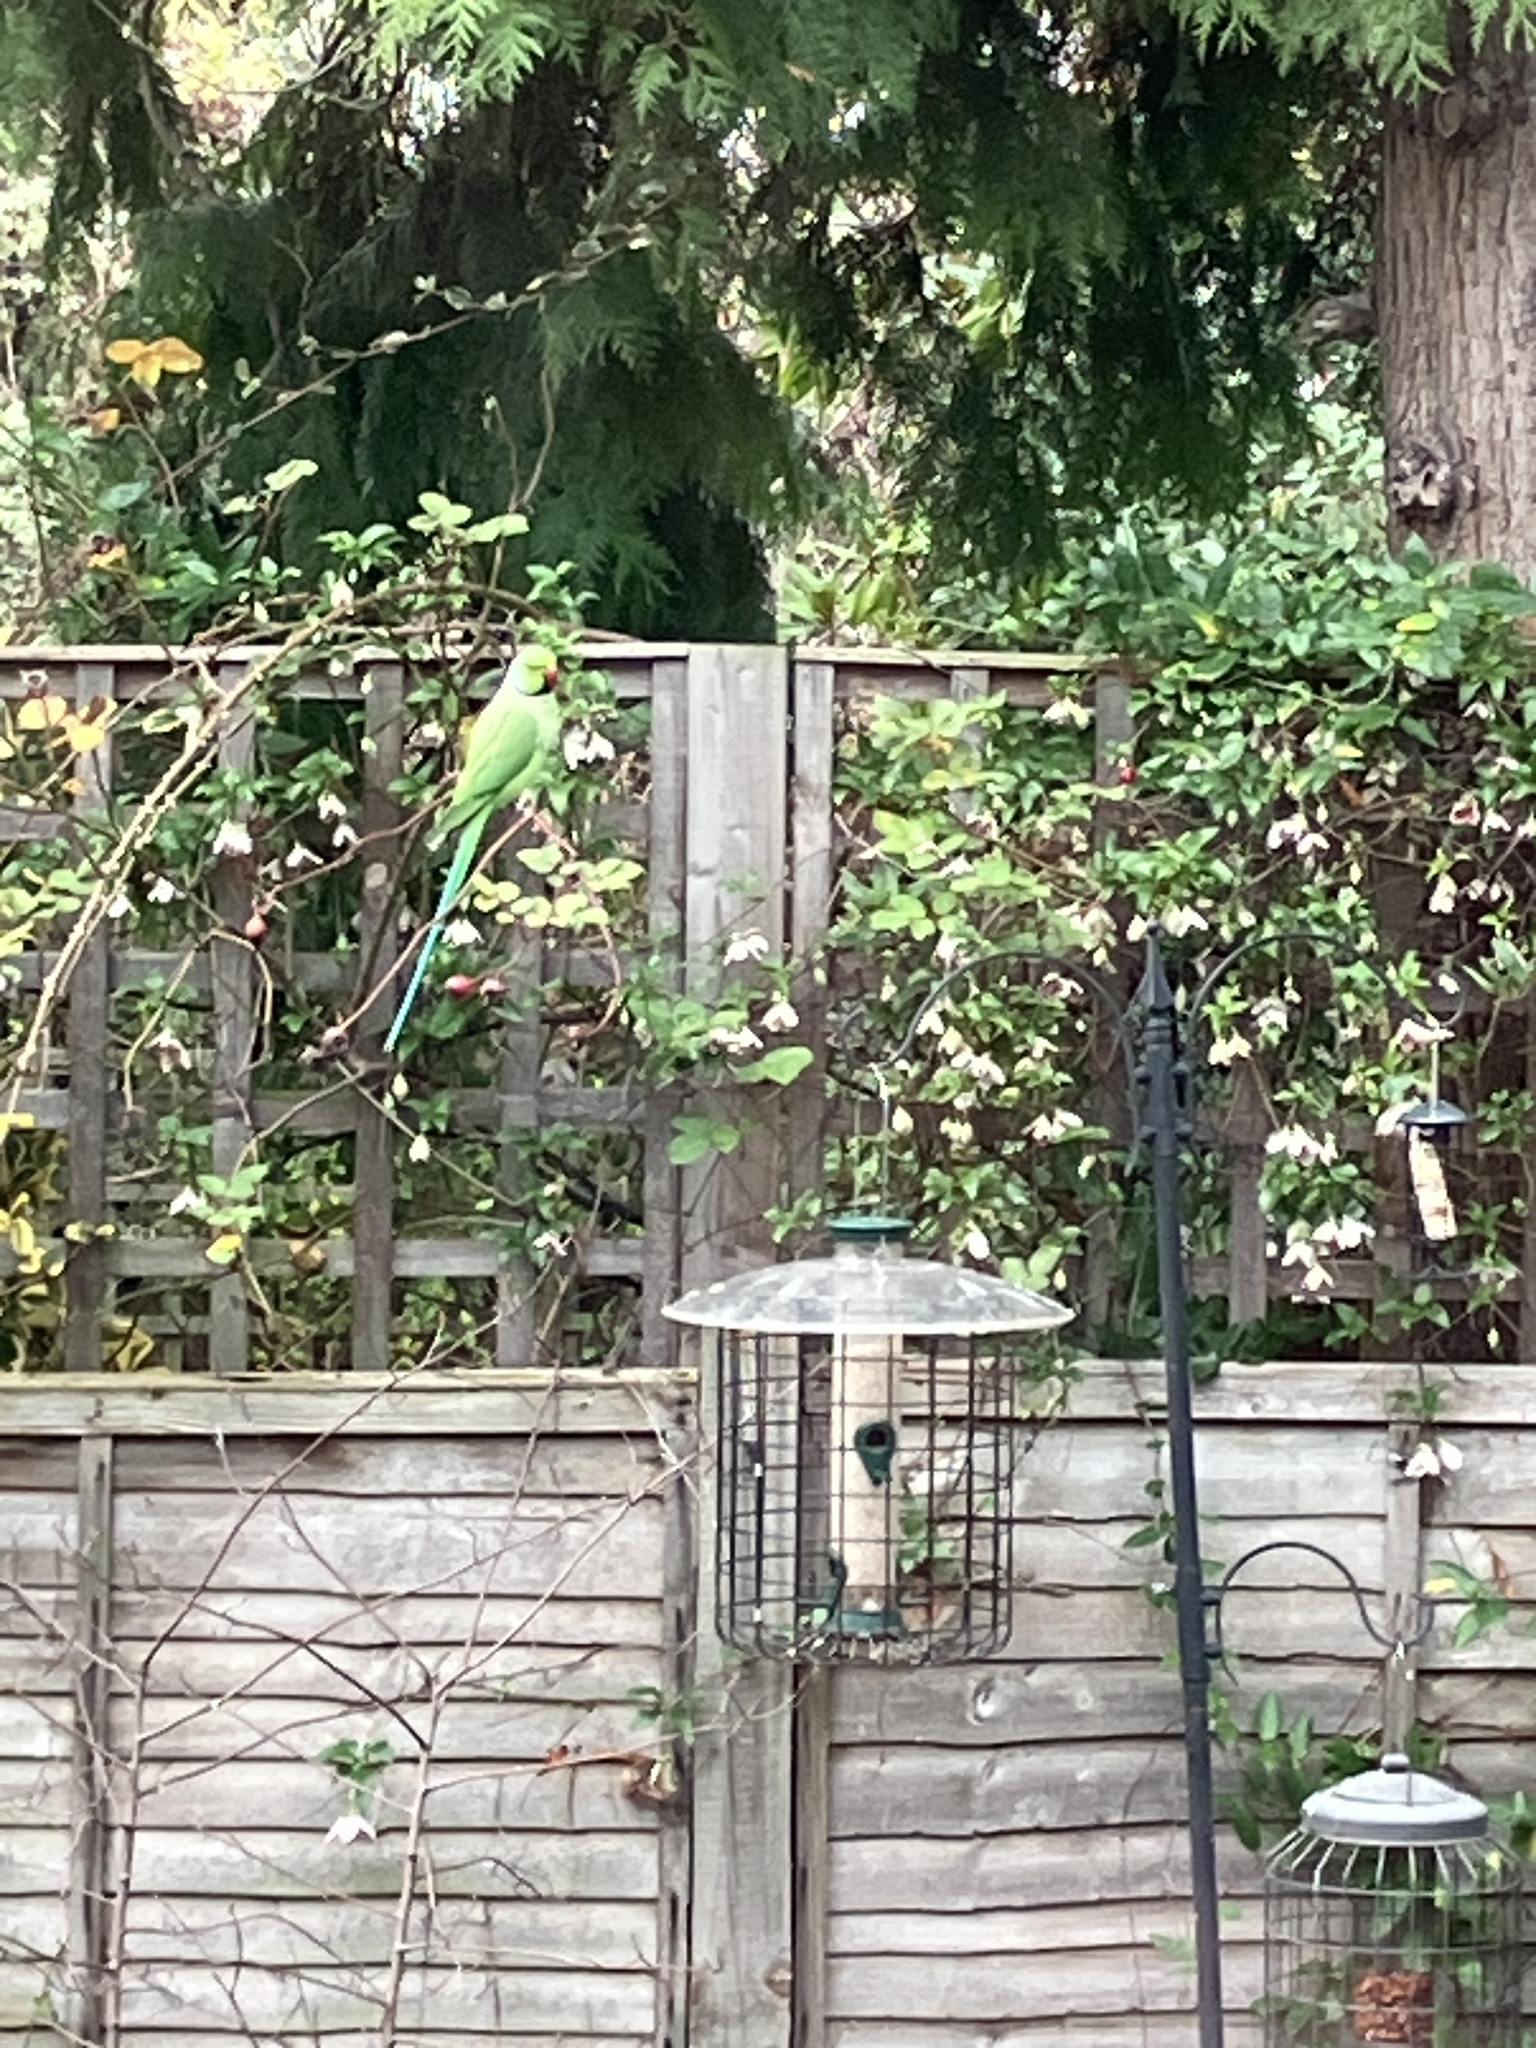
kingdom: Animalia
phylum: Chordata
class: Aves
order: Psittaciformes
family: Psittacidae
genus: Psittacula
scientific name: Psittacula krameri
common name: Rose-ringed parakeet
